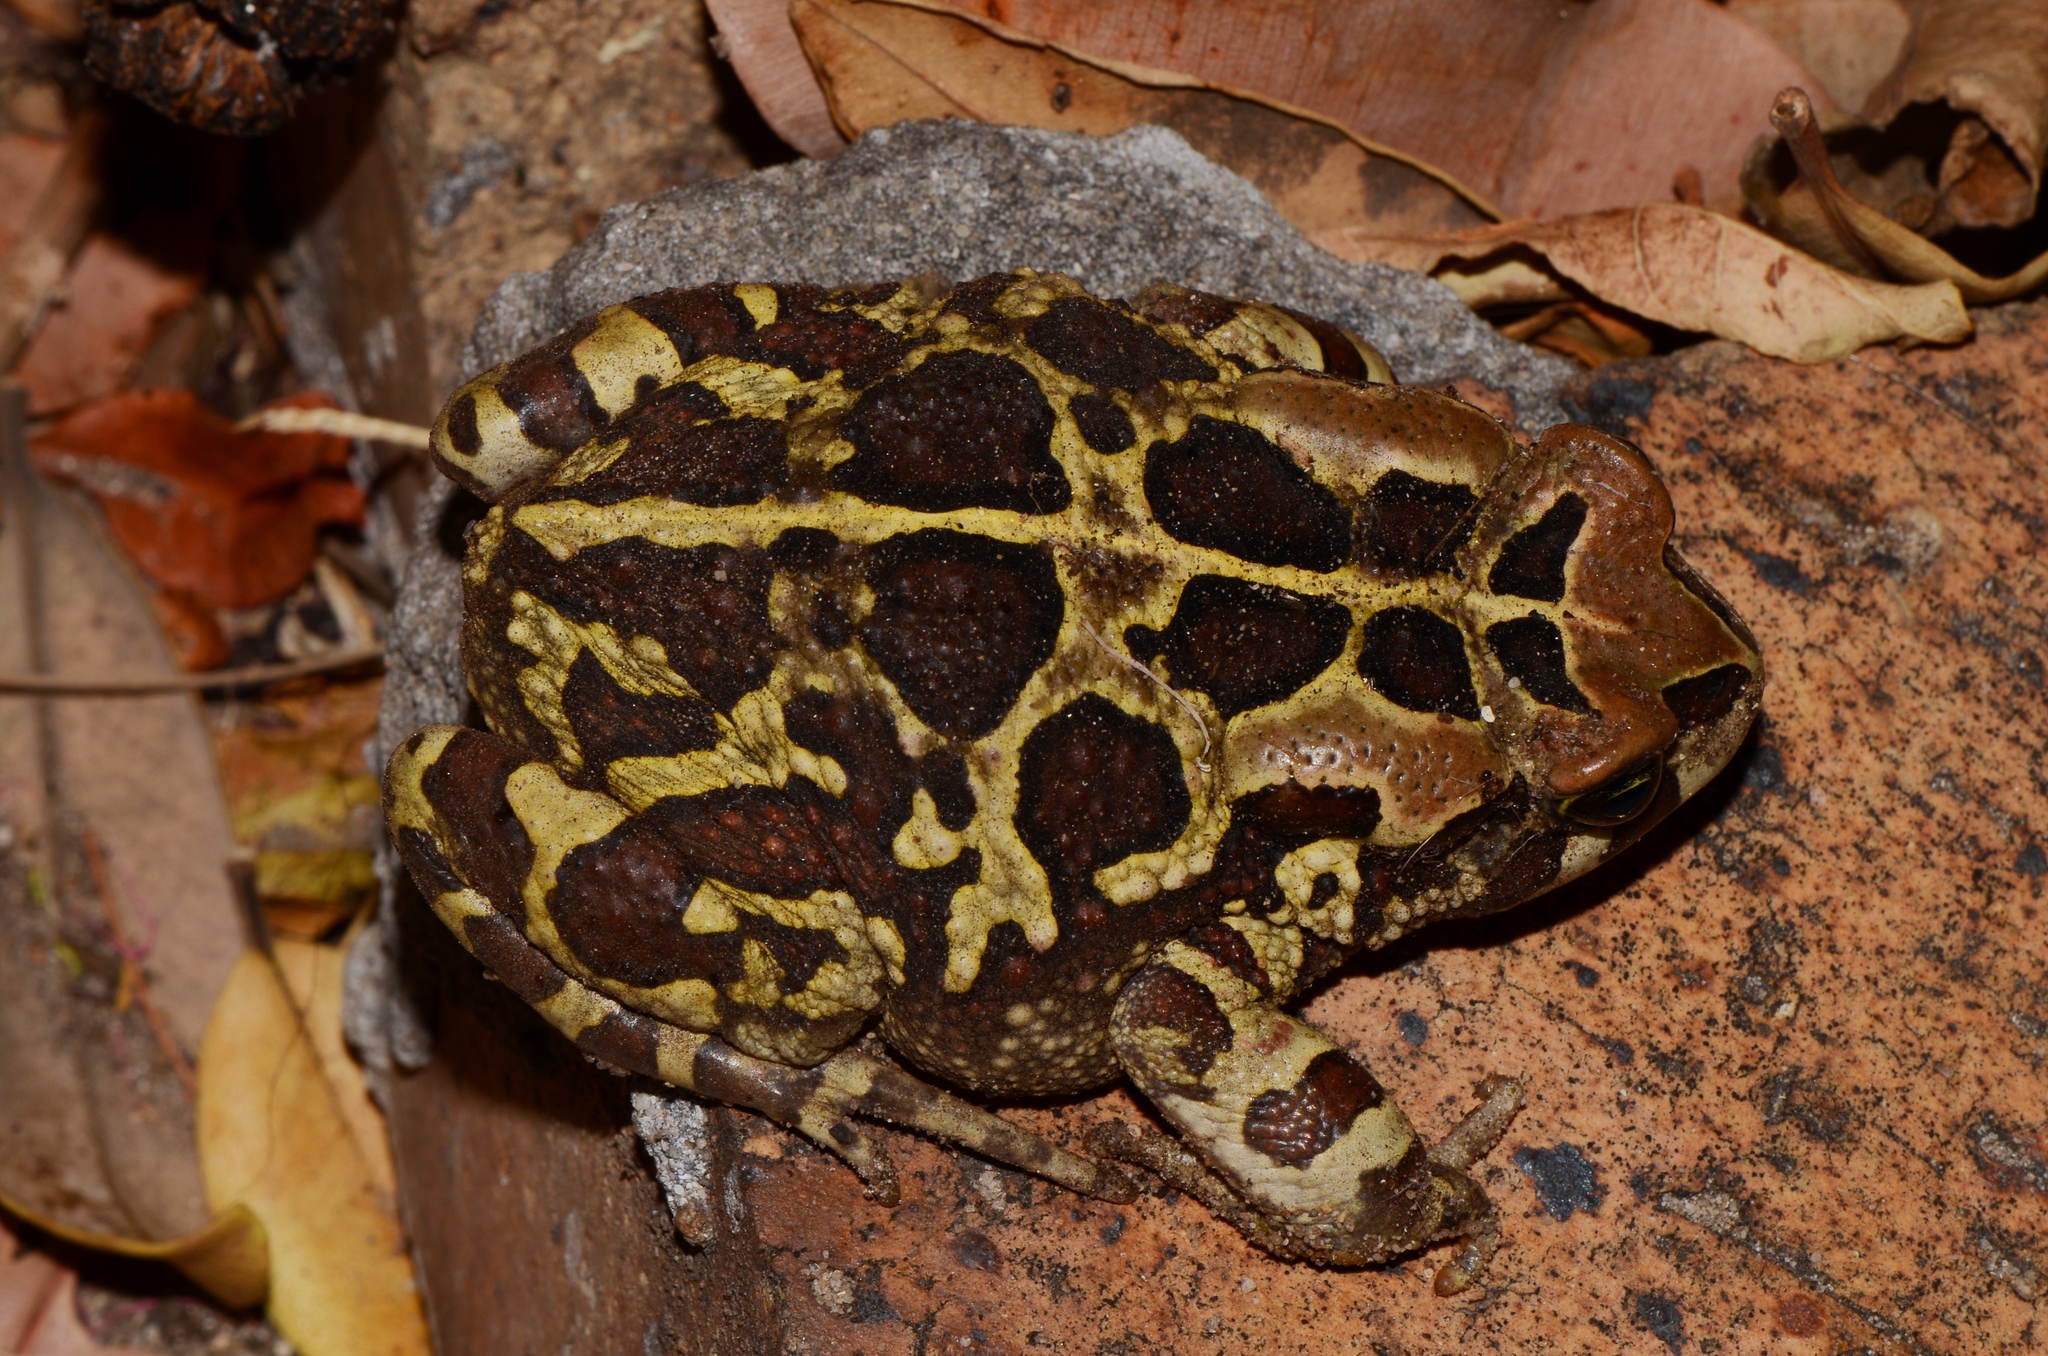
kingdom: Animalia
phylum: Chordata
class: Amphibia
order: Anura
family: Bufonidae
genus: Sclerophrys
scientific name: Sclerophrys pantherina
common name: Panther toad
